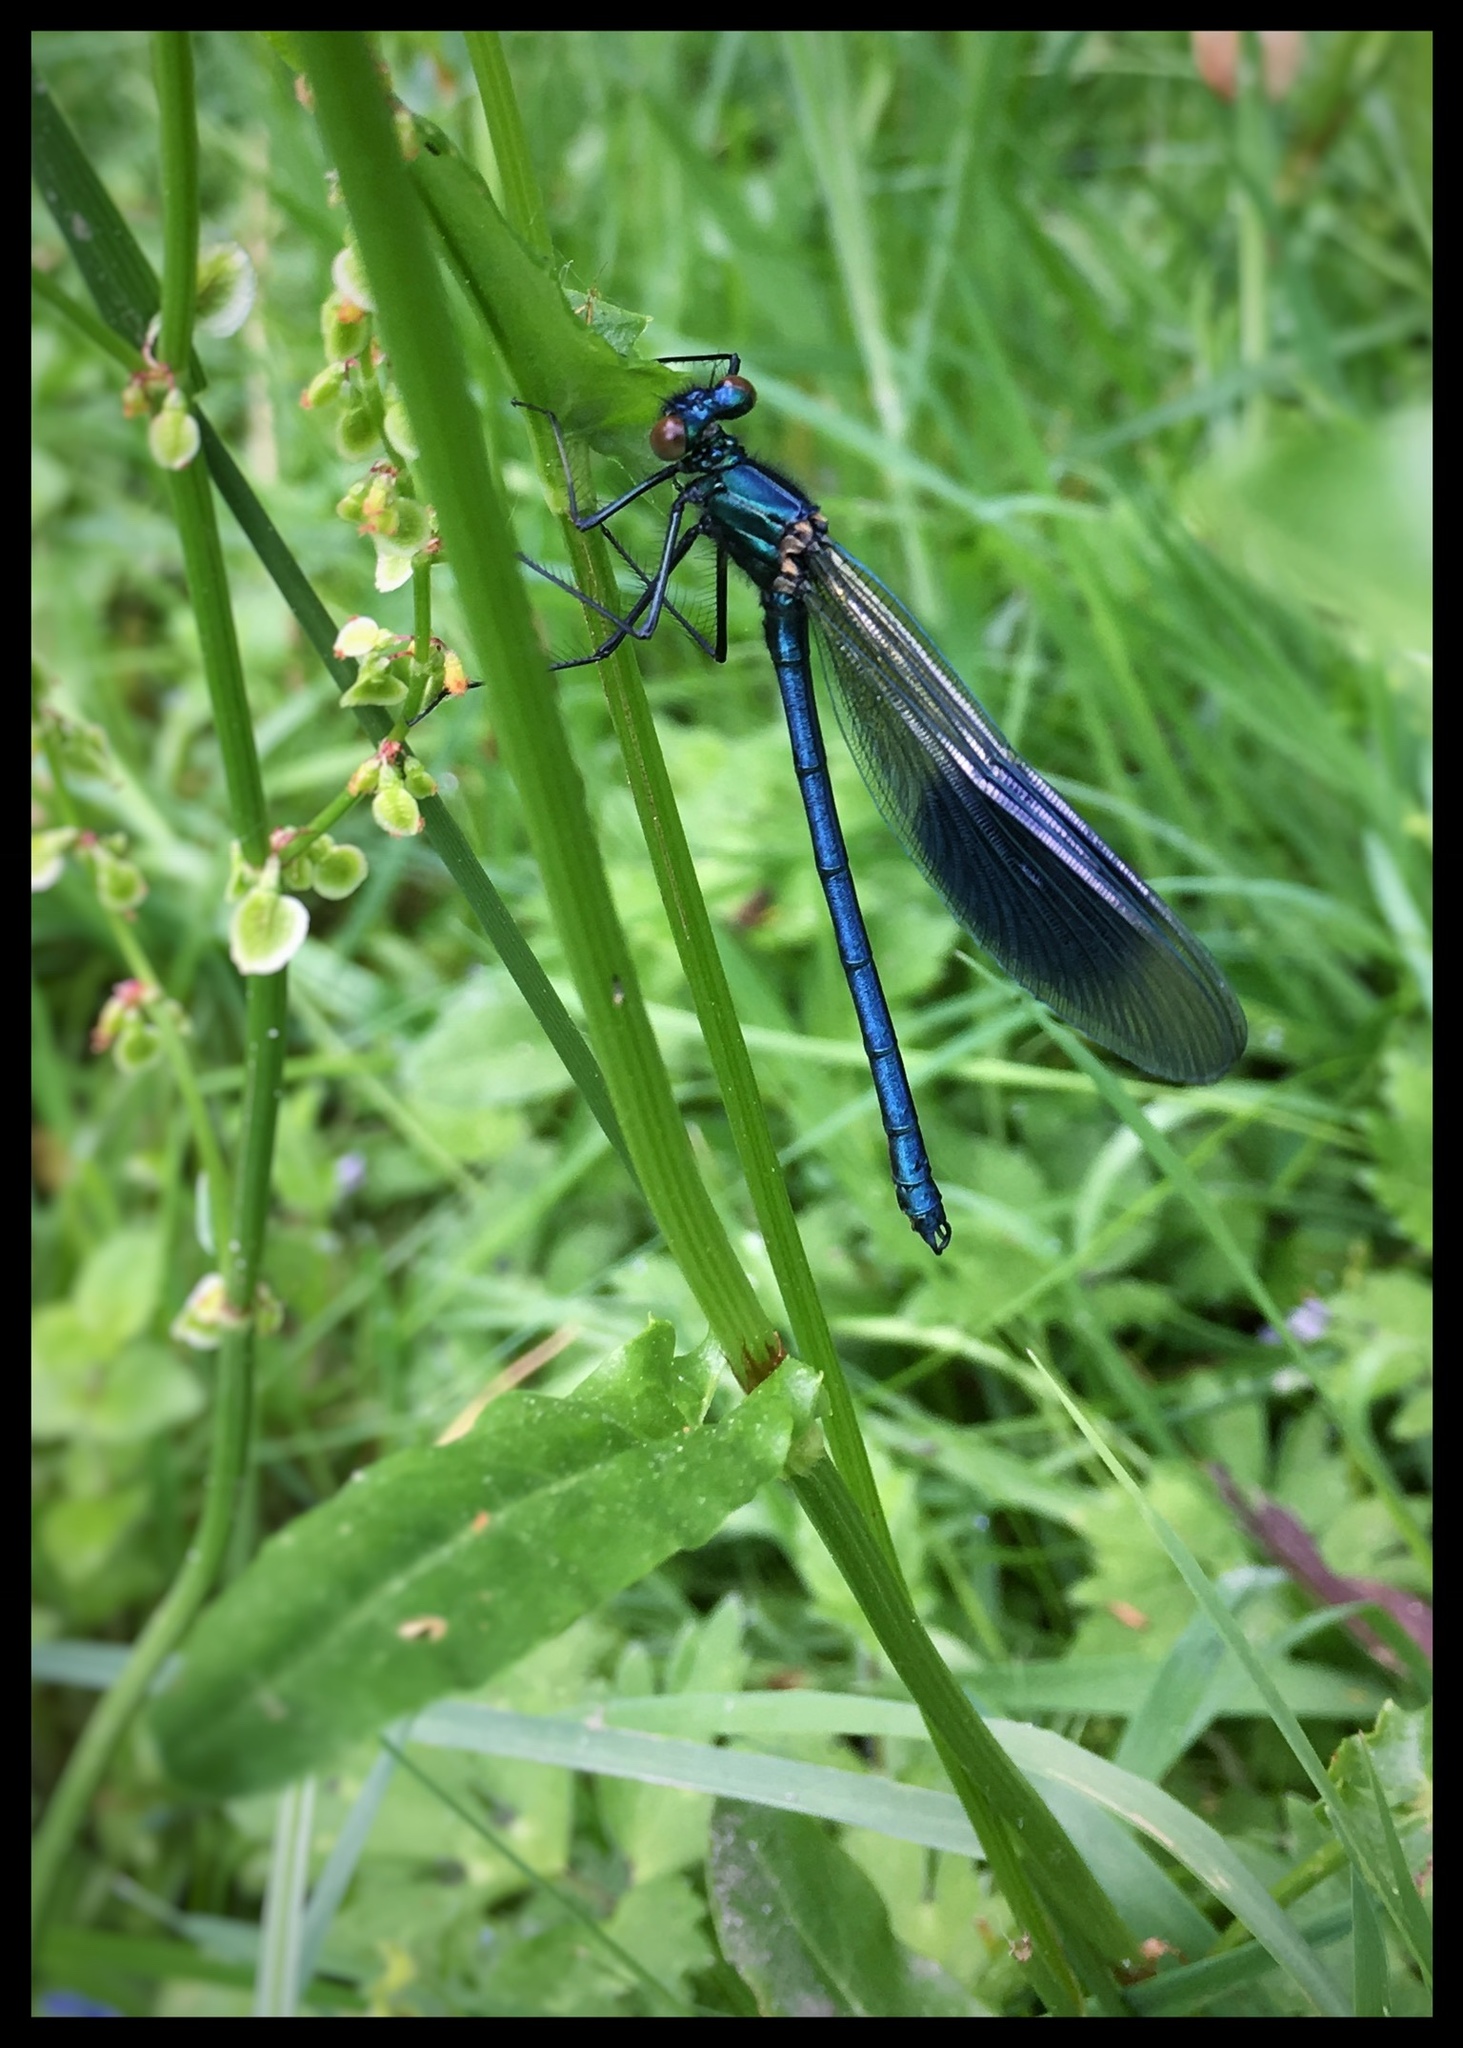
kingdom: Animalia
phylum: Arthropoda
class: Insecta
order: Odonata
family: Calopterygidae
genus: Calopteryx
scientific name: Calopteryx splendens
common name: Banded demoiselle
